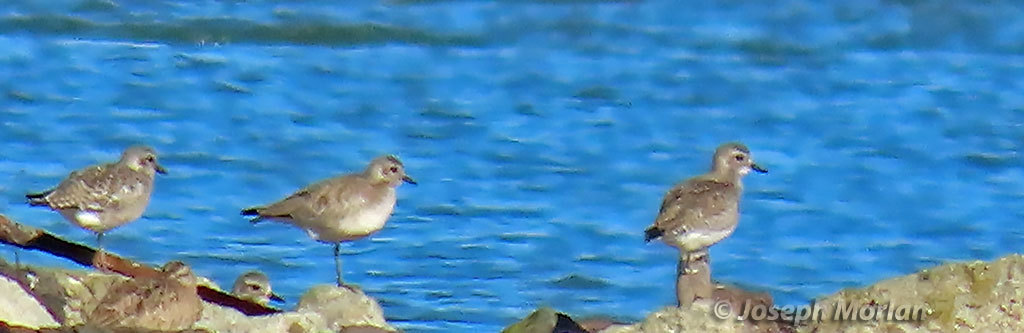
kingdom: Animalia
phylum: Chordata
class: Aves
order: Charadriiformes
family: Charadriidae
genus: Pluvialis
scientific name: Pluvialis squatarola
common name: Grey plover
